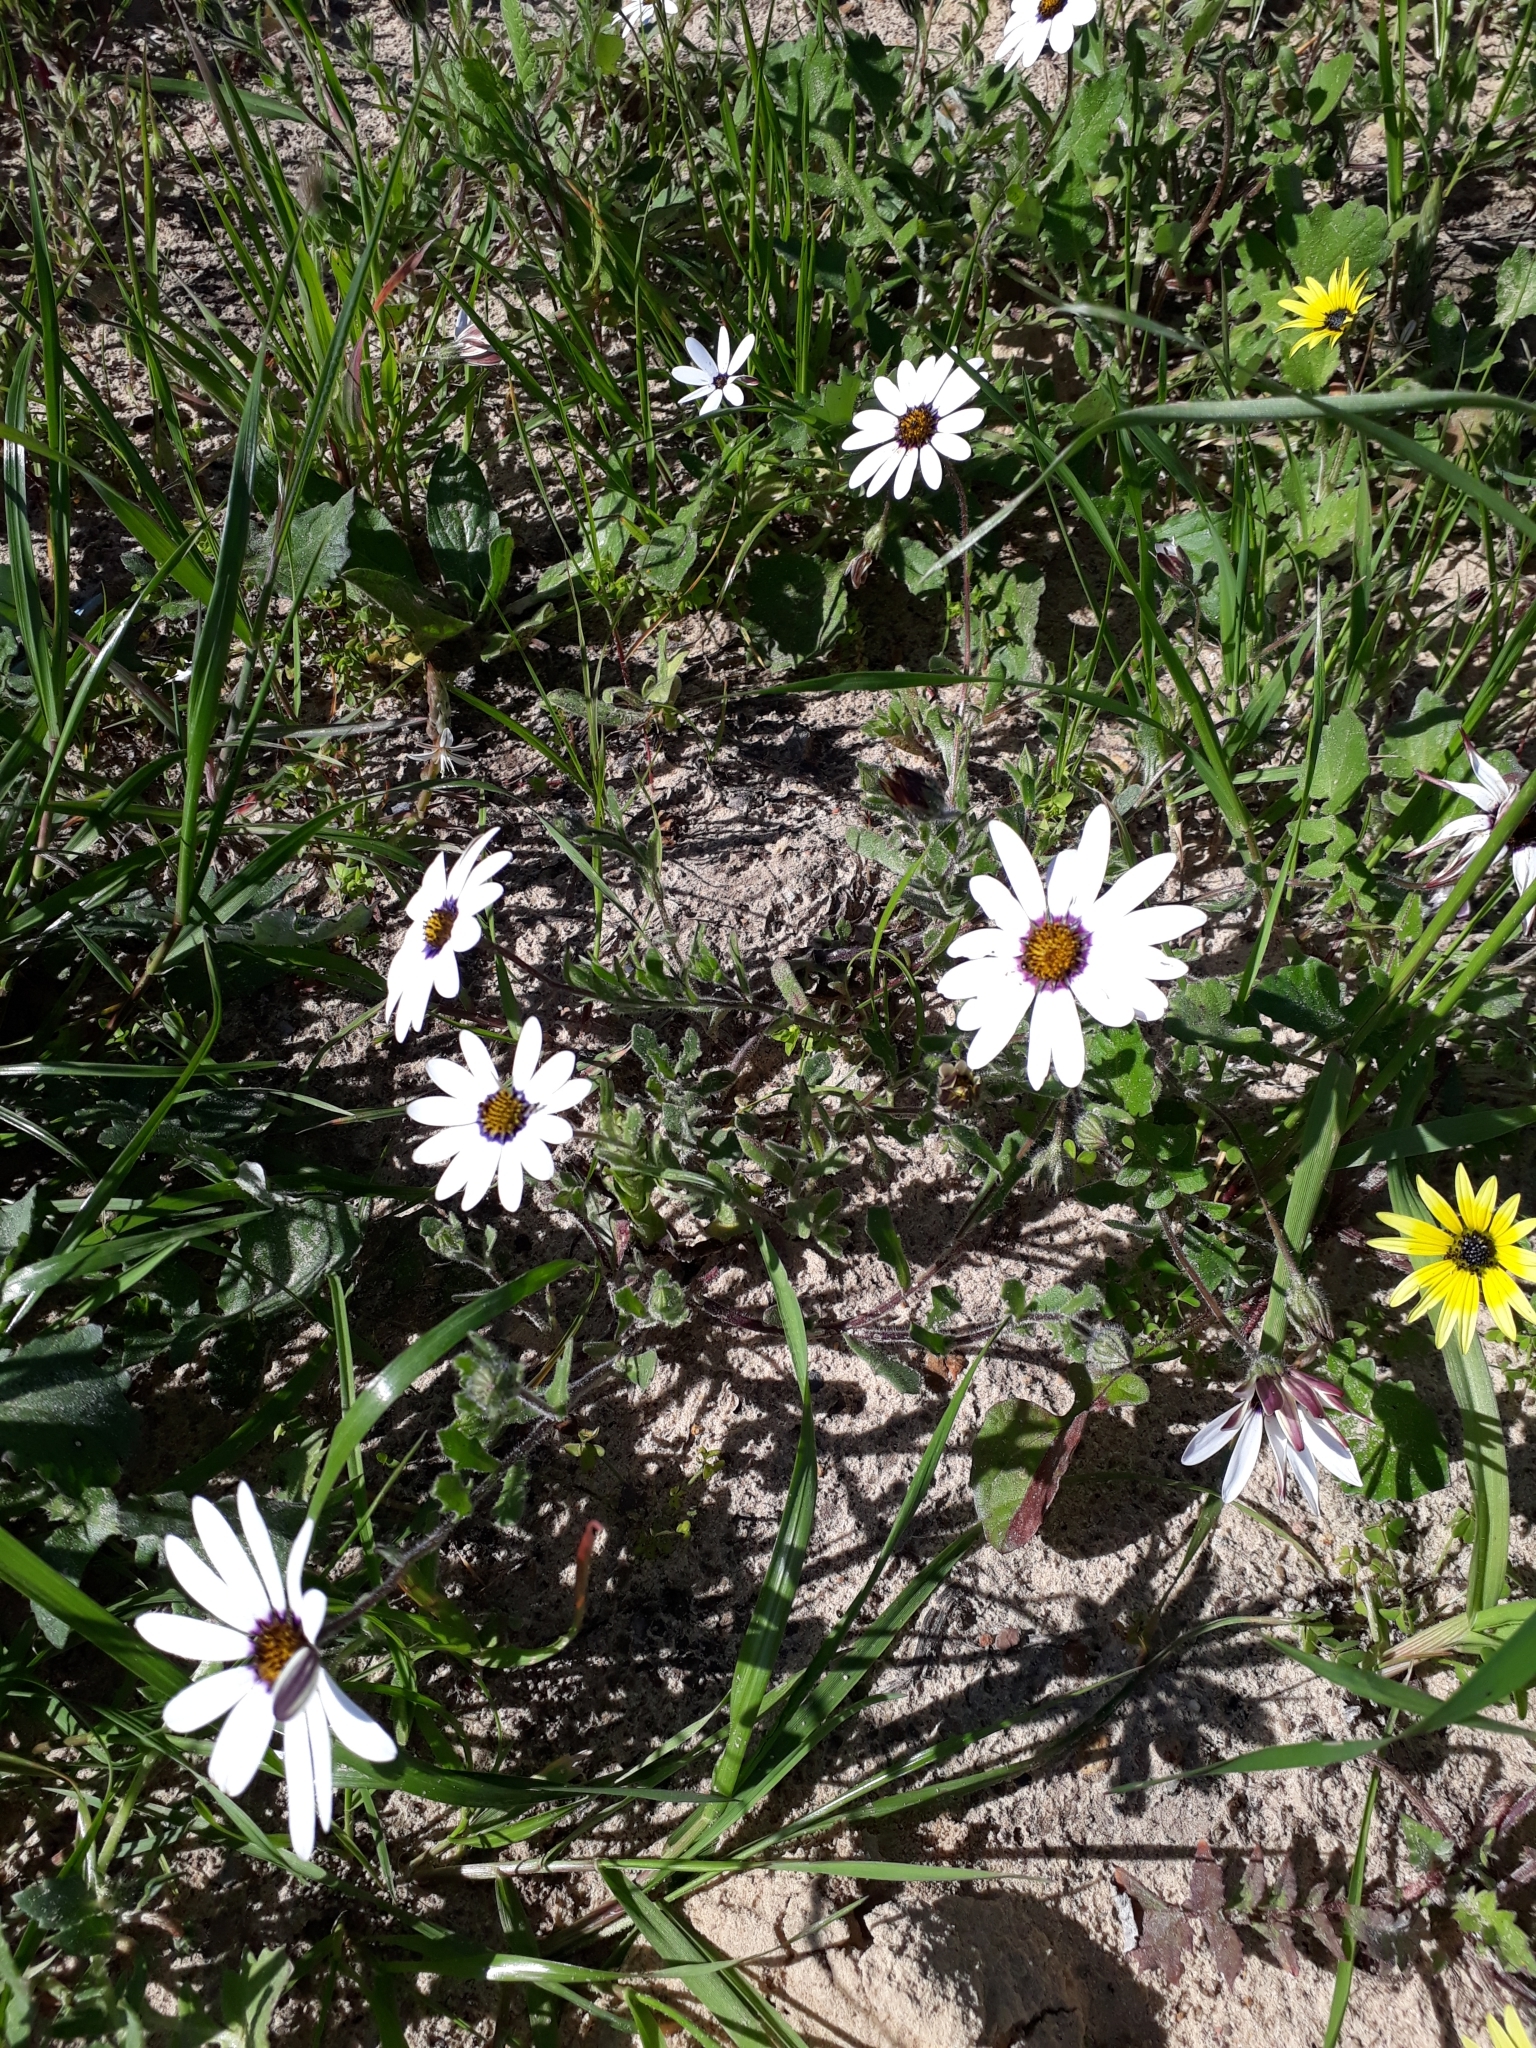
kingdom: Plantae
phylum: Tracheophyta
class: Magnoliopsida
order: Asterales
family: Asteraceae
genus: Dimorphotheca
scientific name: Dimorphotheca pluvialis
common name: Weather prophet
